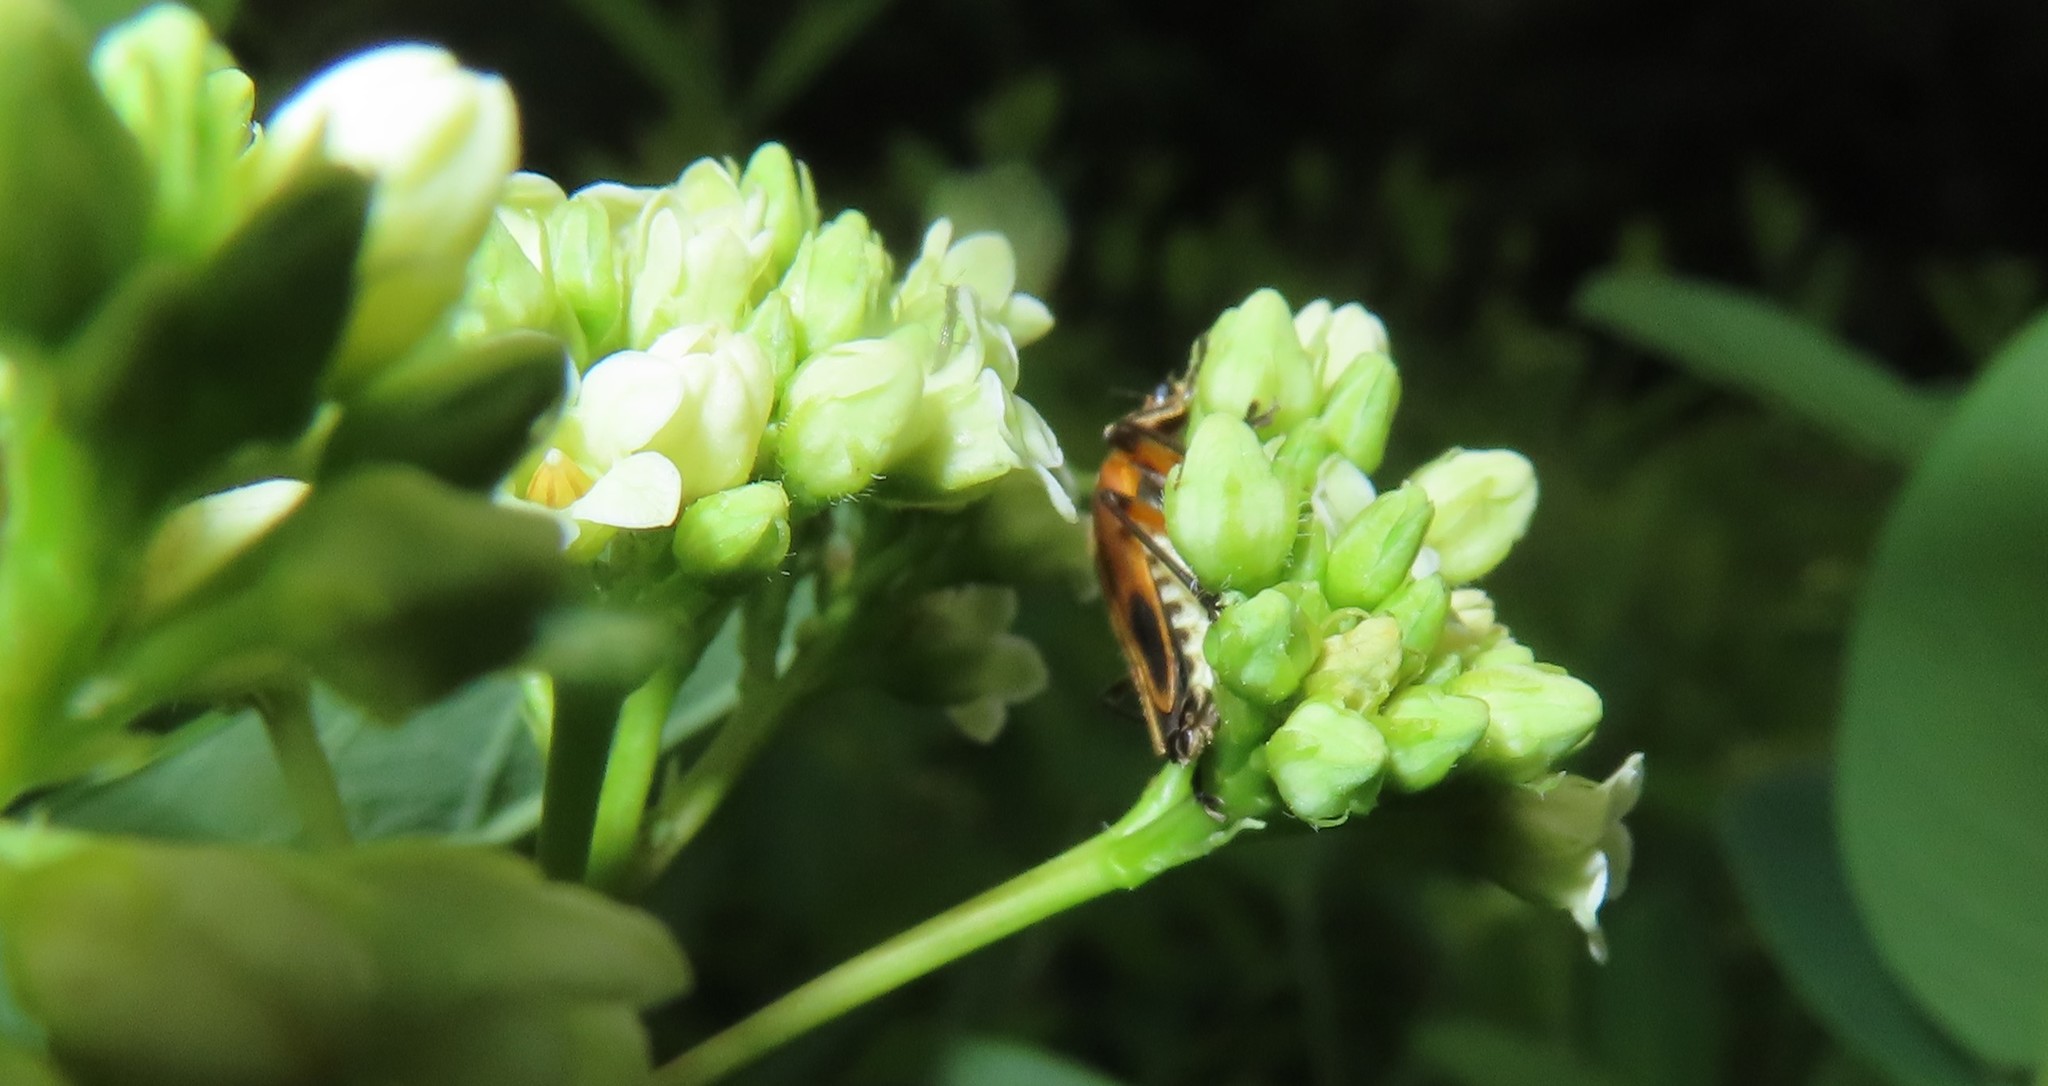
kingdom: Animalia
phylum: Arthropoda
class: Insecta
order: Coleoptera
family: Cantharidae
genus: Chauliognathus
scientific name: Chauliognathus marginatus
